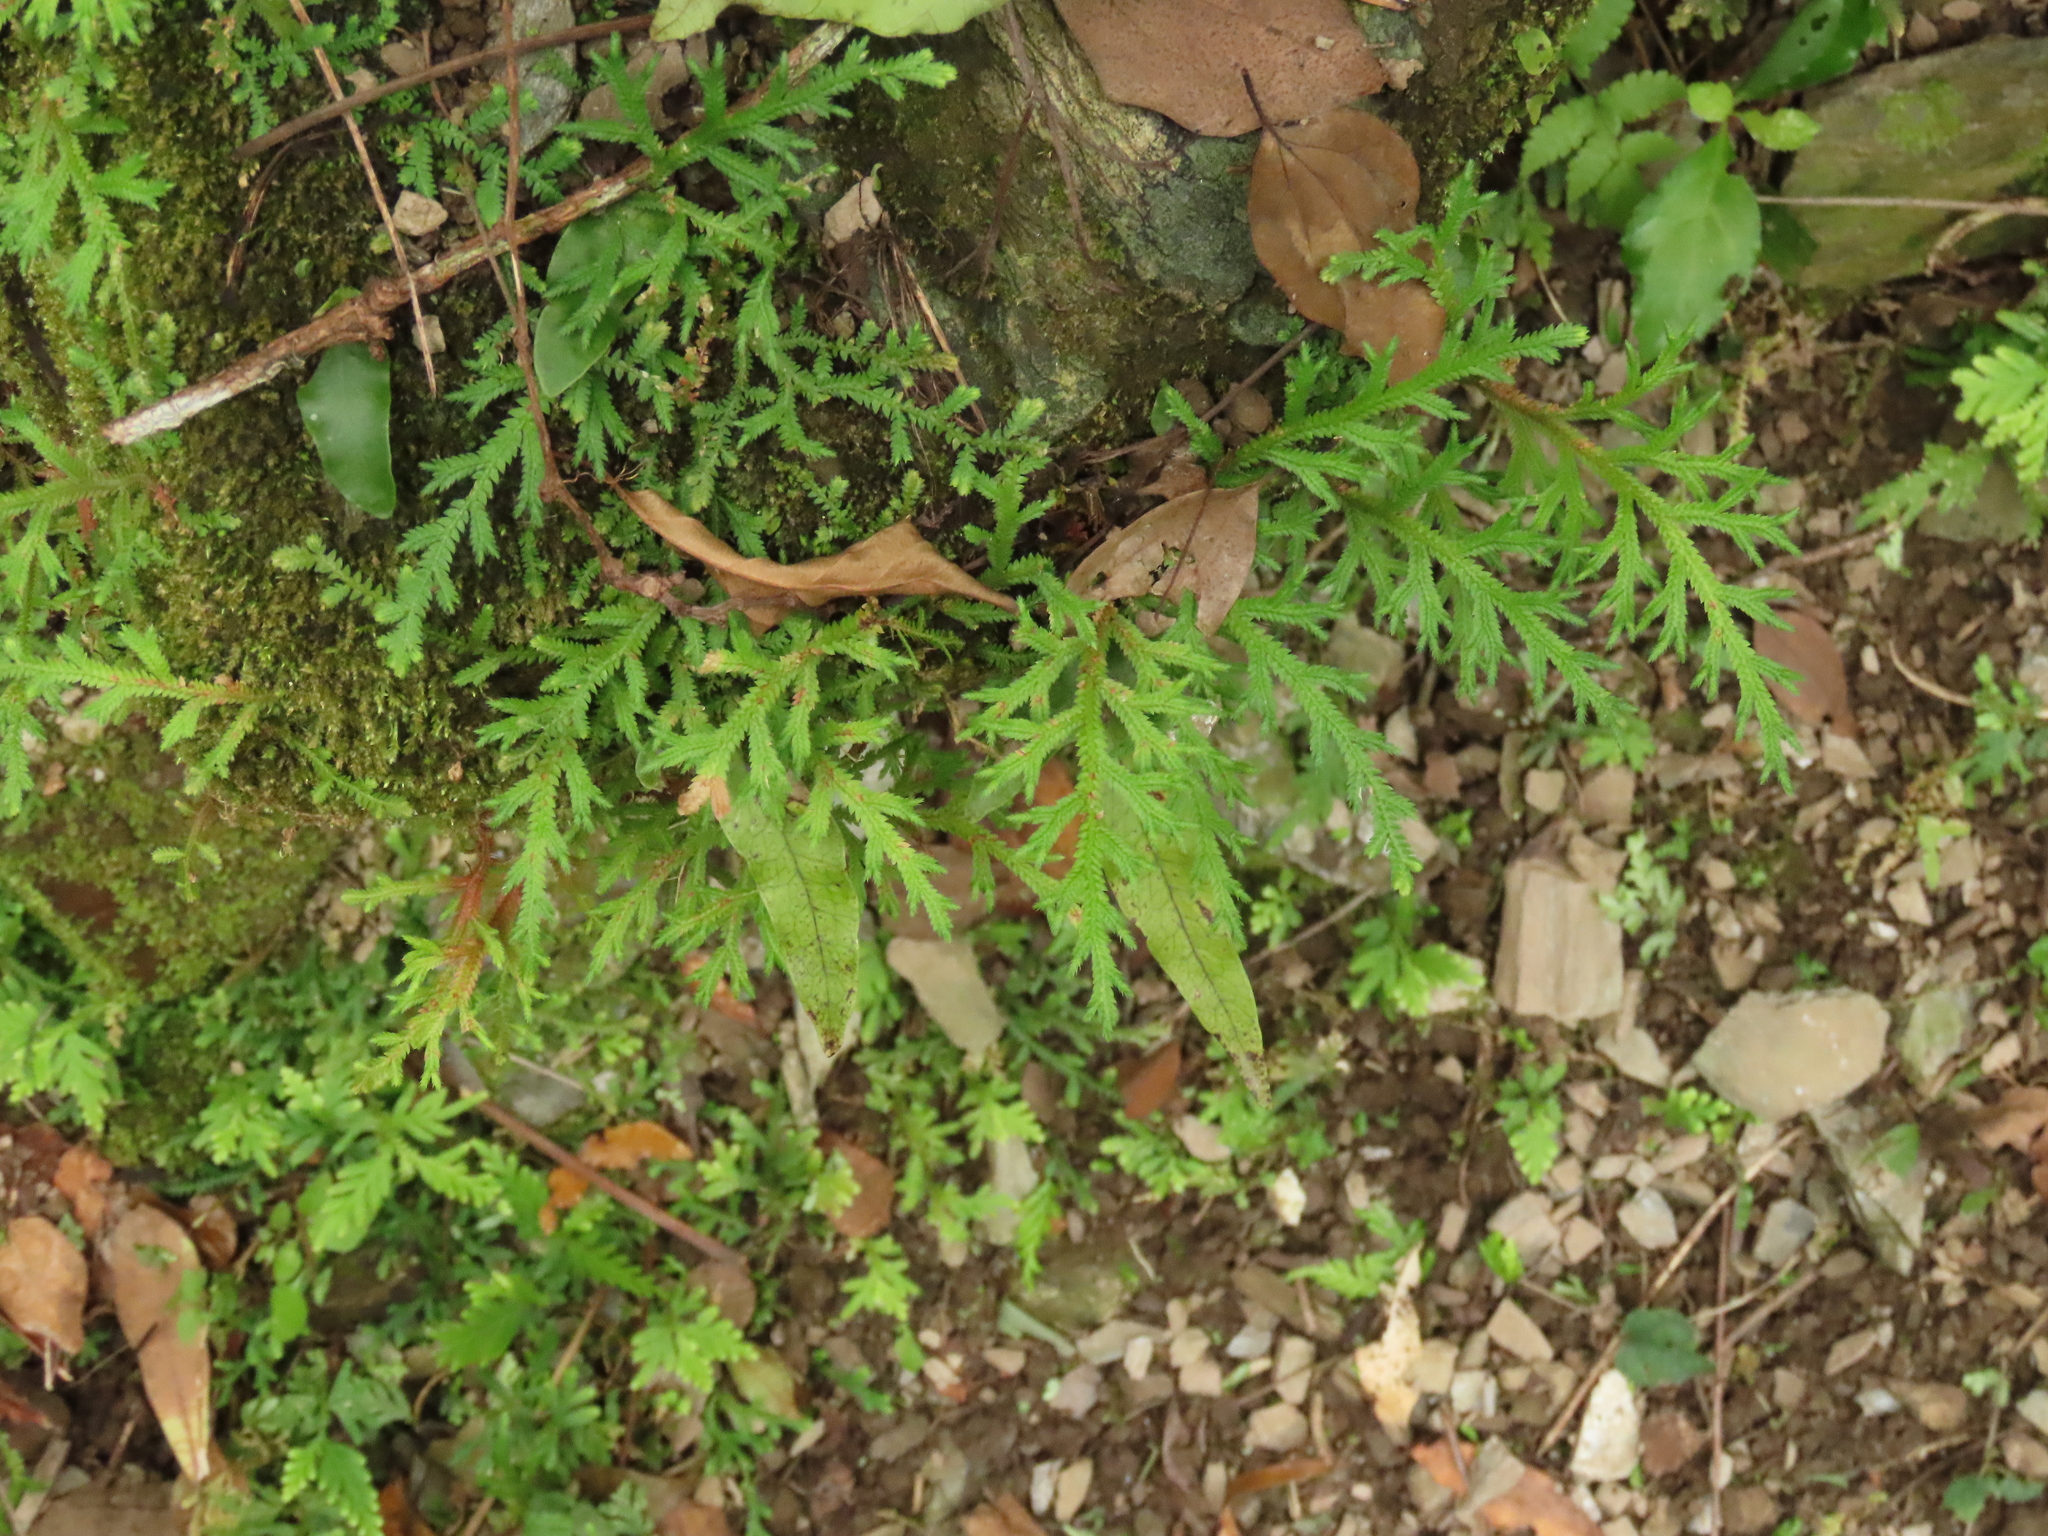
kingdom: Plantae
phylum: Tracheophyta
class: Lycopodiopsida
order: Selaginellales
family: Selaginellaceae
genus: Selaginella
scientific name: Selaginella repanda
